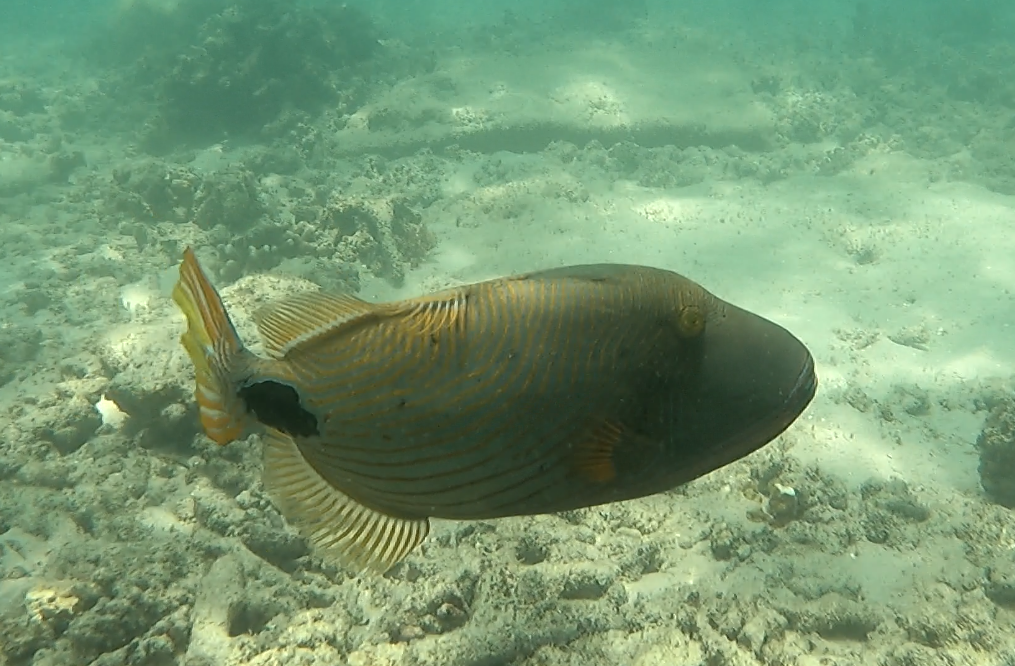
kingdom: Animalia
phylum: Chordata
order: Tetraodontiformes
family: Balistidae
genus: Balistapus
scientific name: Balistapus undulatus
